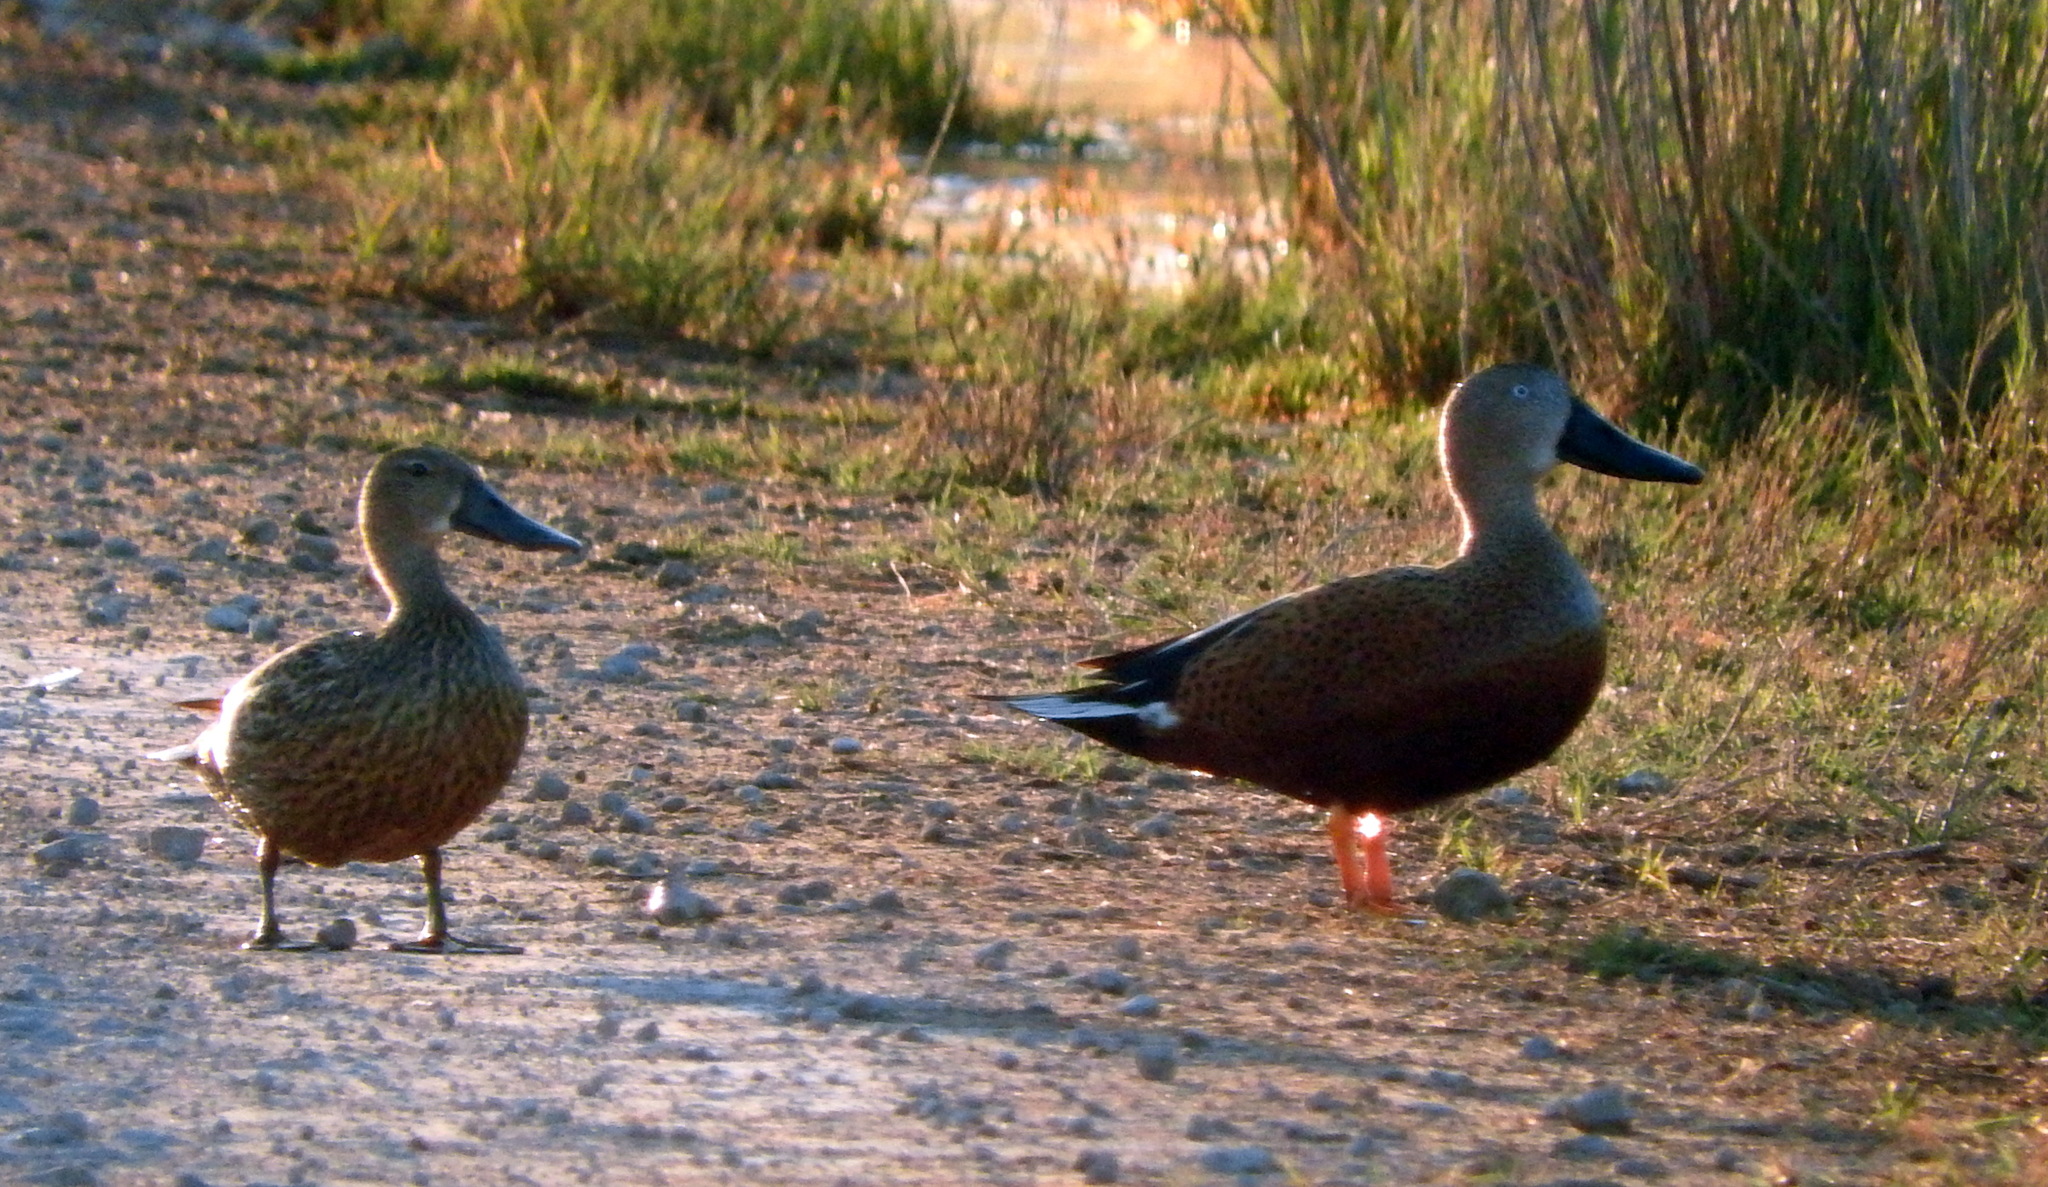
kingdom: Animalia
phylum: Chordata
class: Aves
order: Anseriformes
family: Anatidae
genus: Spatula
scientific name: Spatula platalea
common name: Red shoveler
